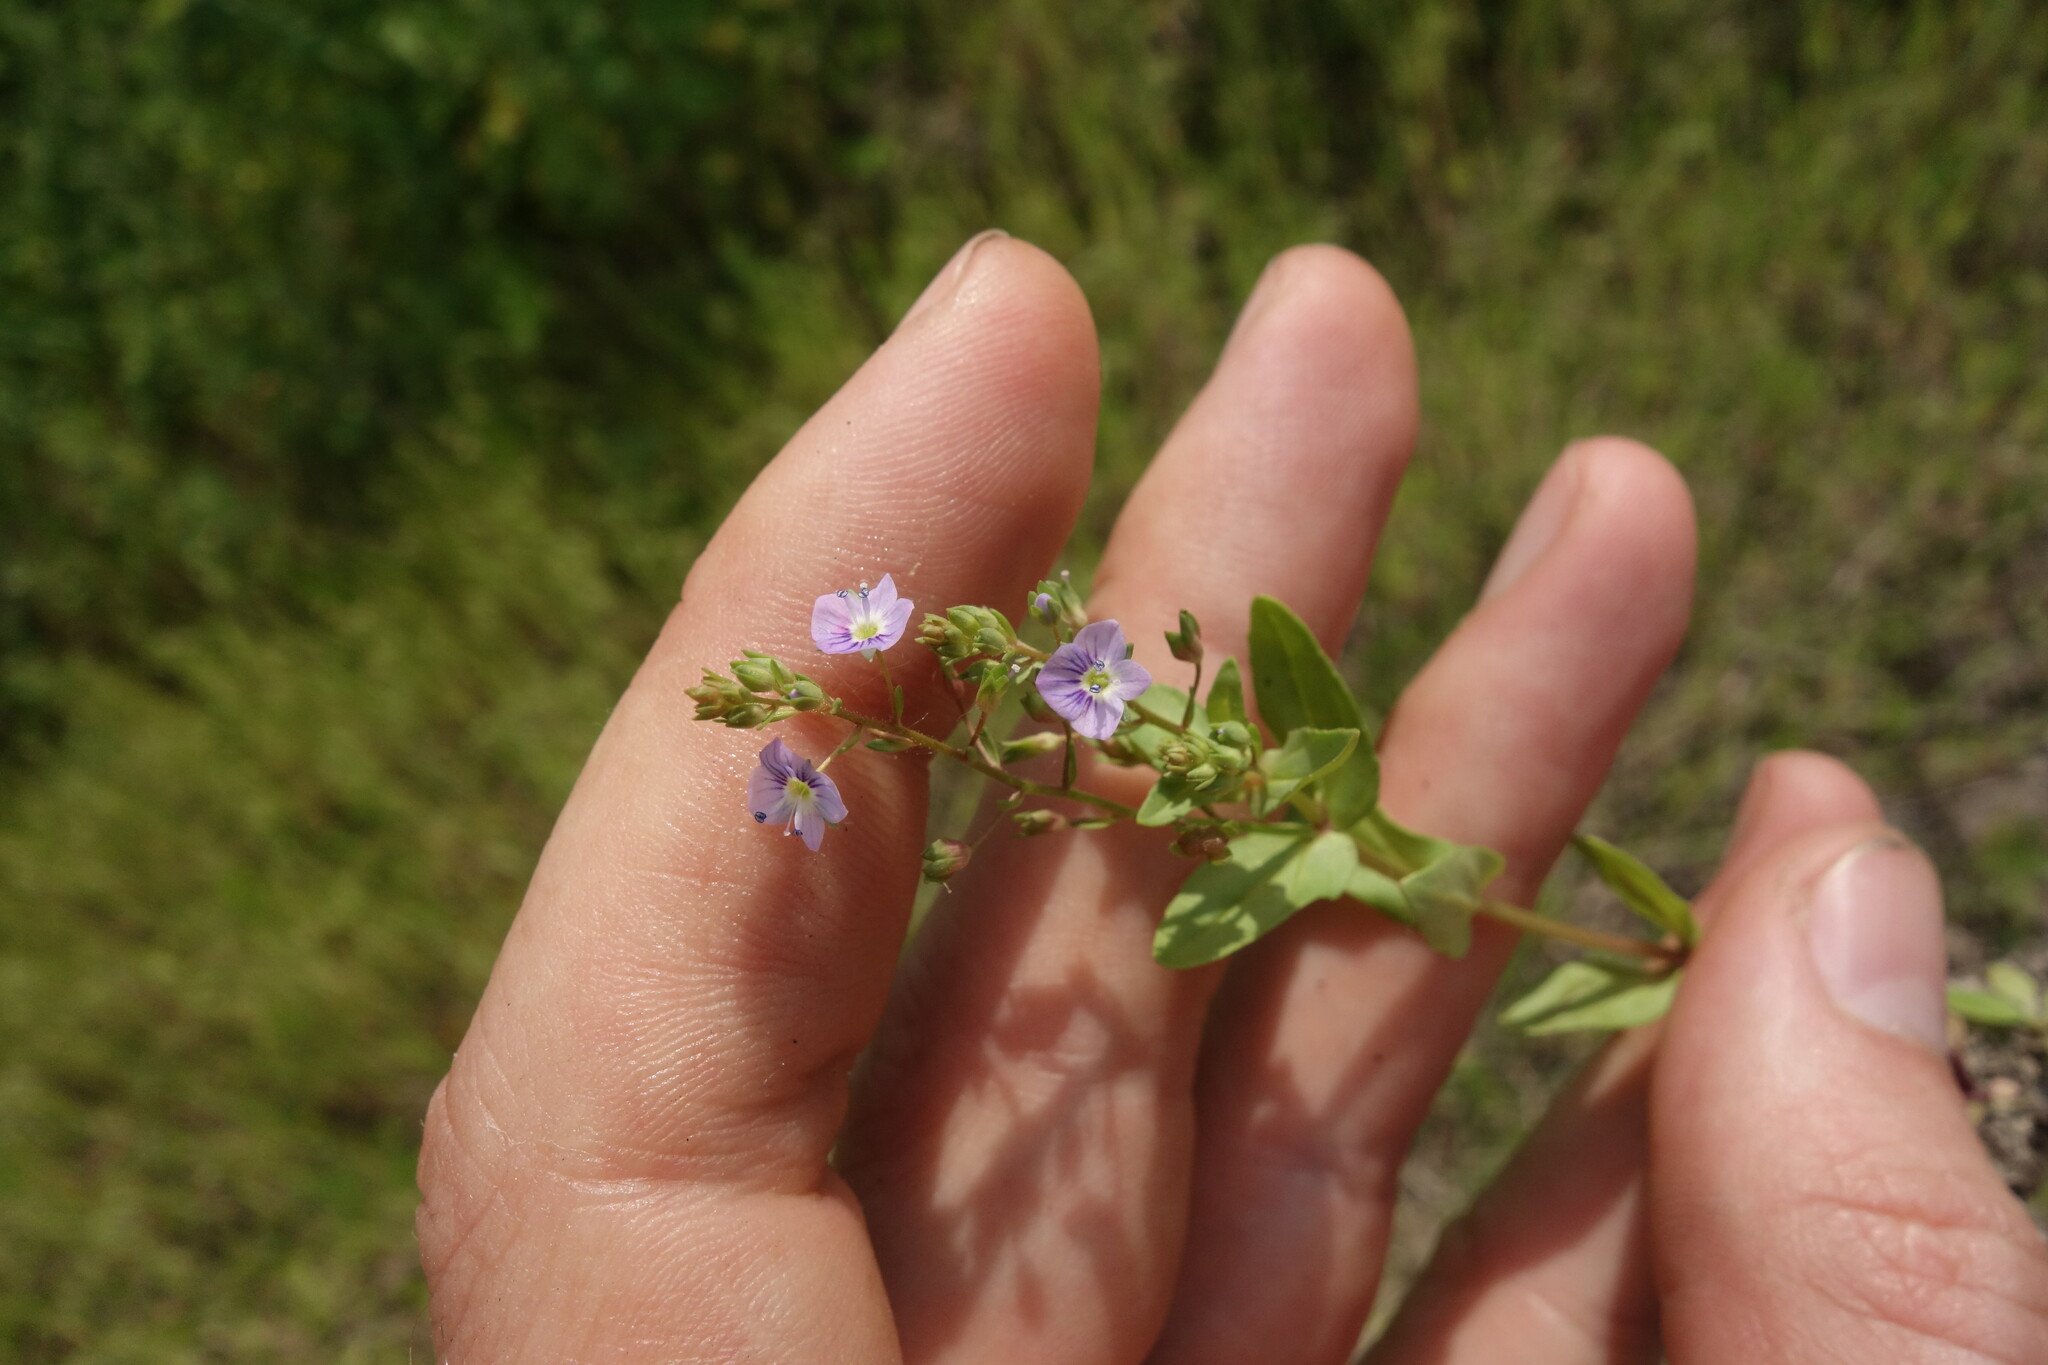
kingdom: Plantae
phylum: Tracheophyta
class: Magnoliopsida
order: Lamiales
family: Plantaginaceae
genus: Veronica
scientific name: Veronica anagallis-aquatica
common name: Water speedwell
